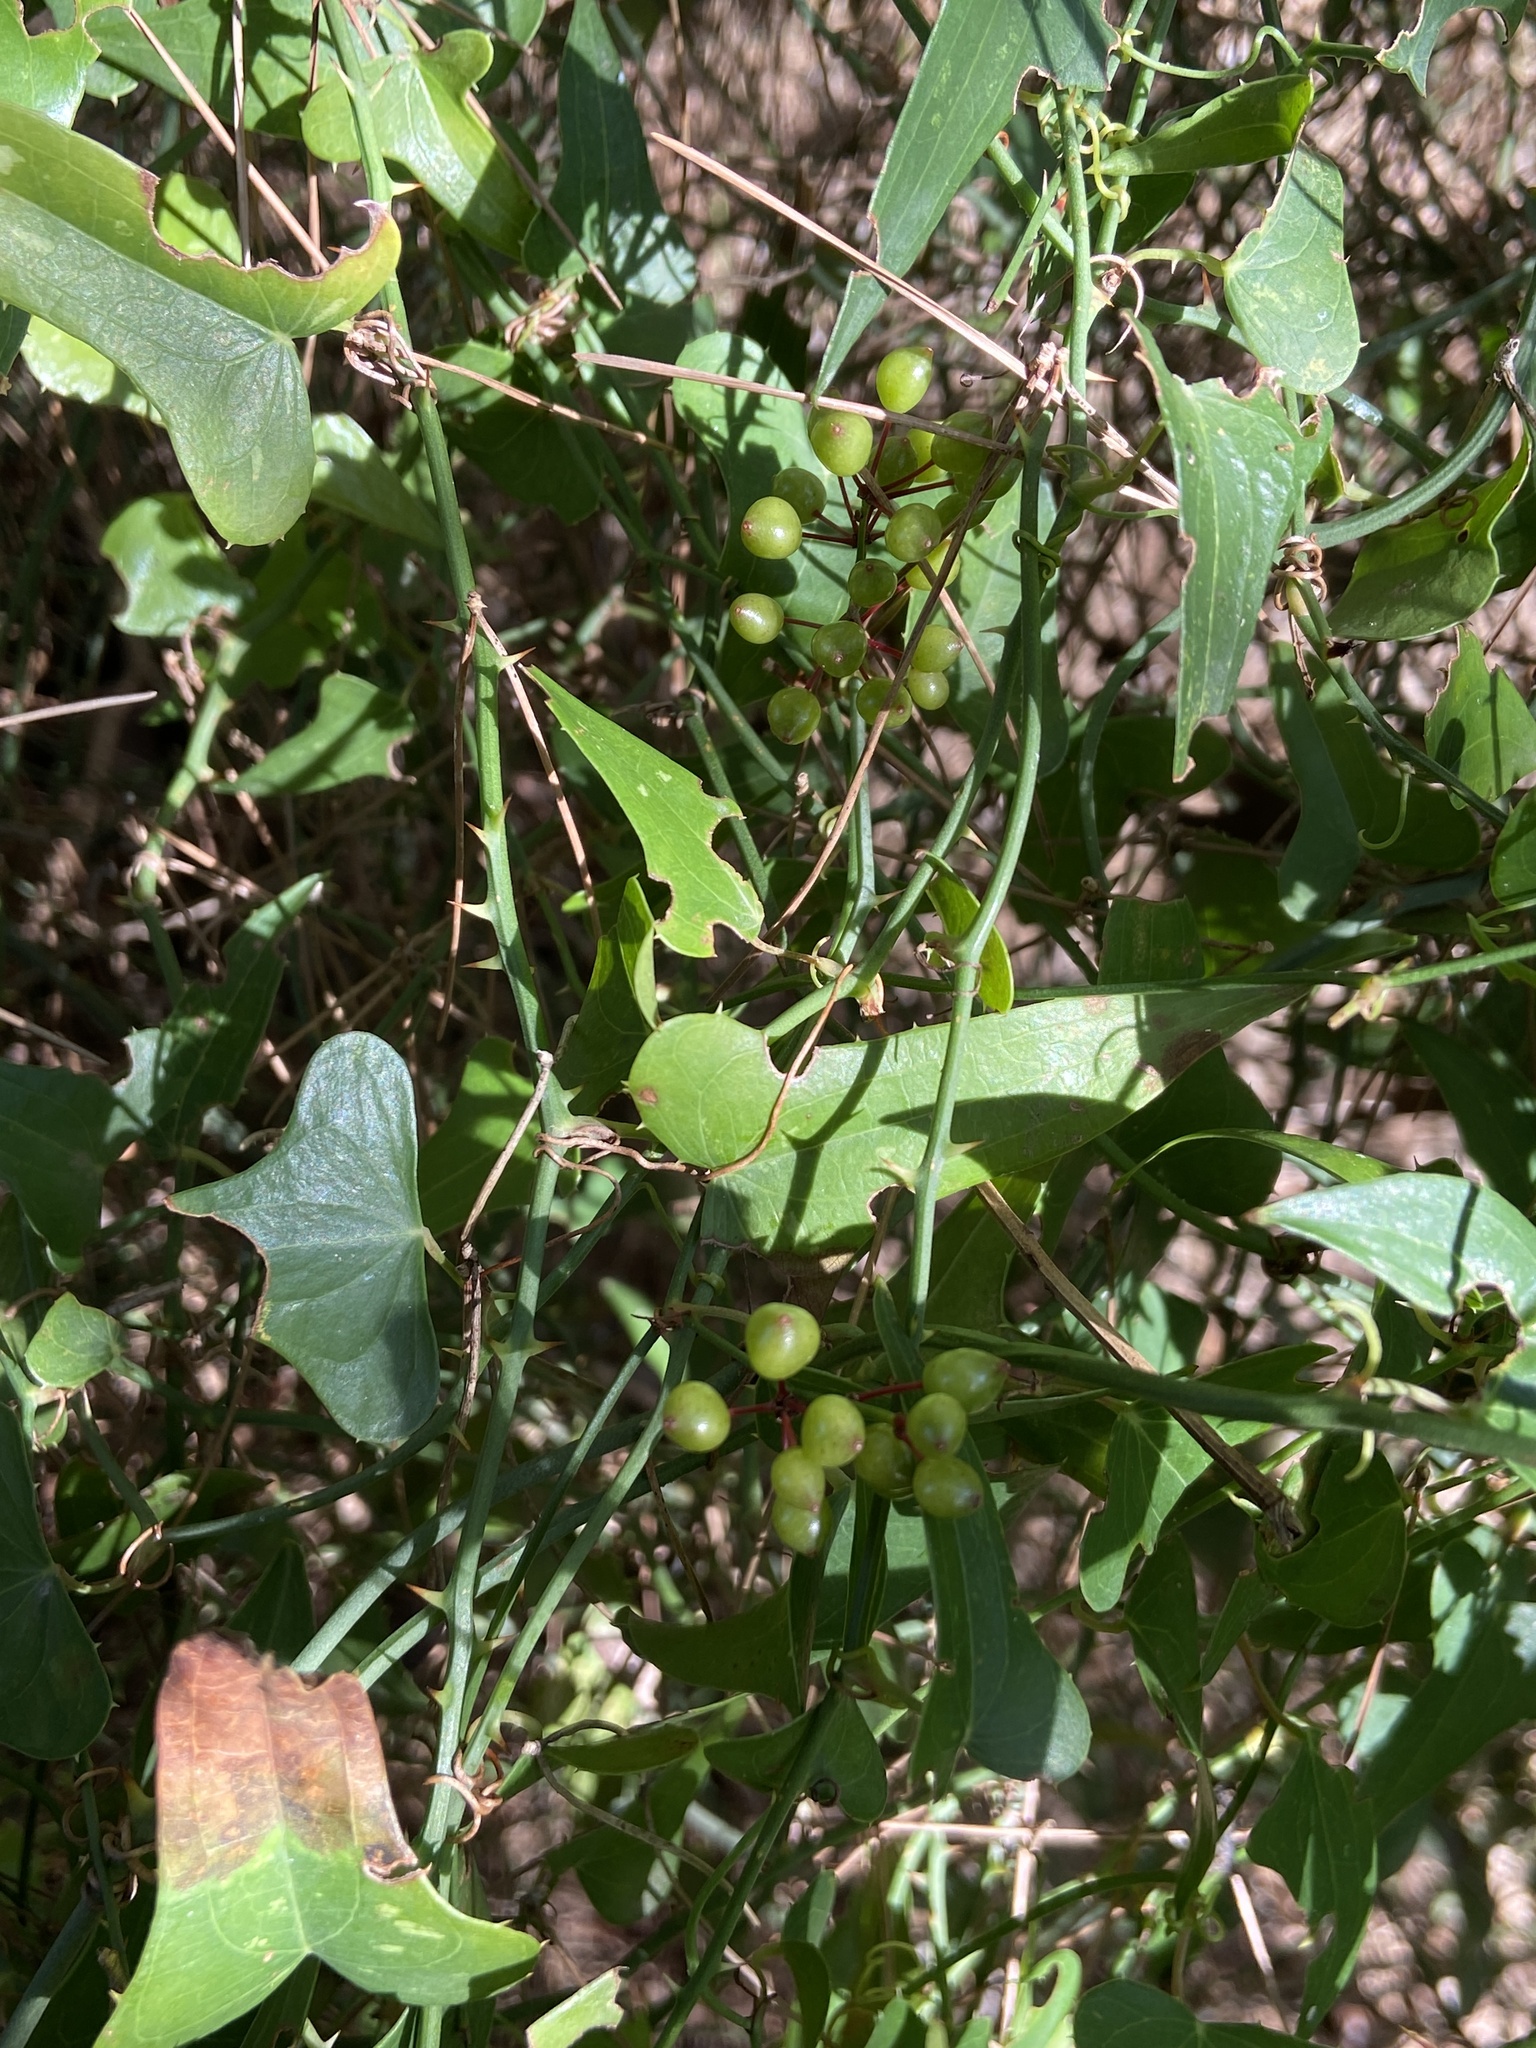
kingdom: Plantae
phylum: Tracheophyta
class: Liliopsida
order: Liliales
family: Smilacaceae
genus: Smilax
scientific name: Smilax aspera
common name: Common smilax
